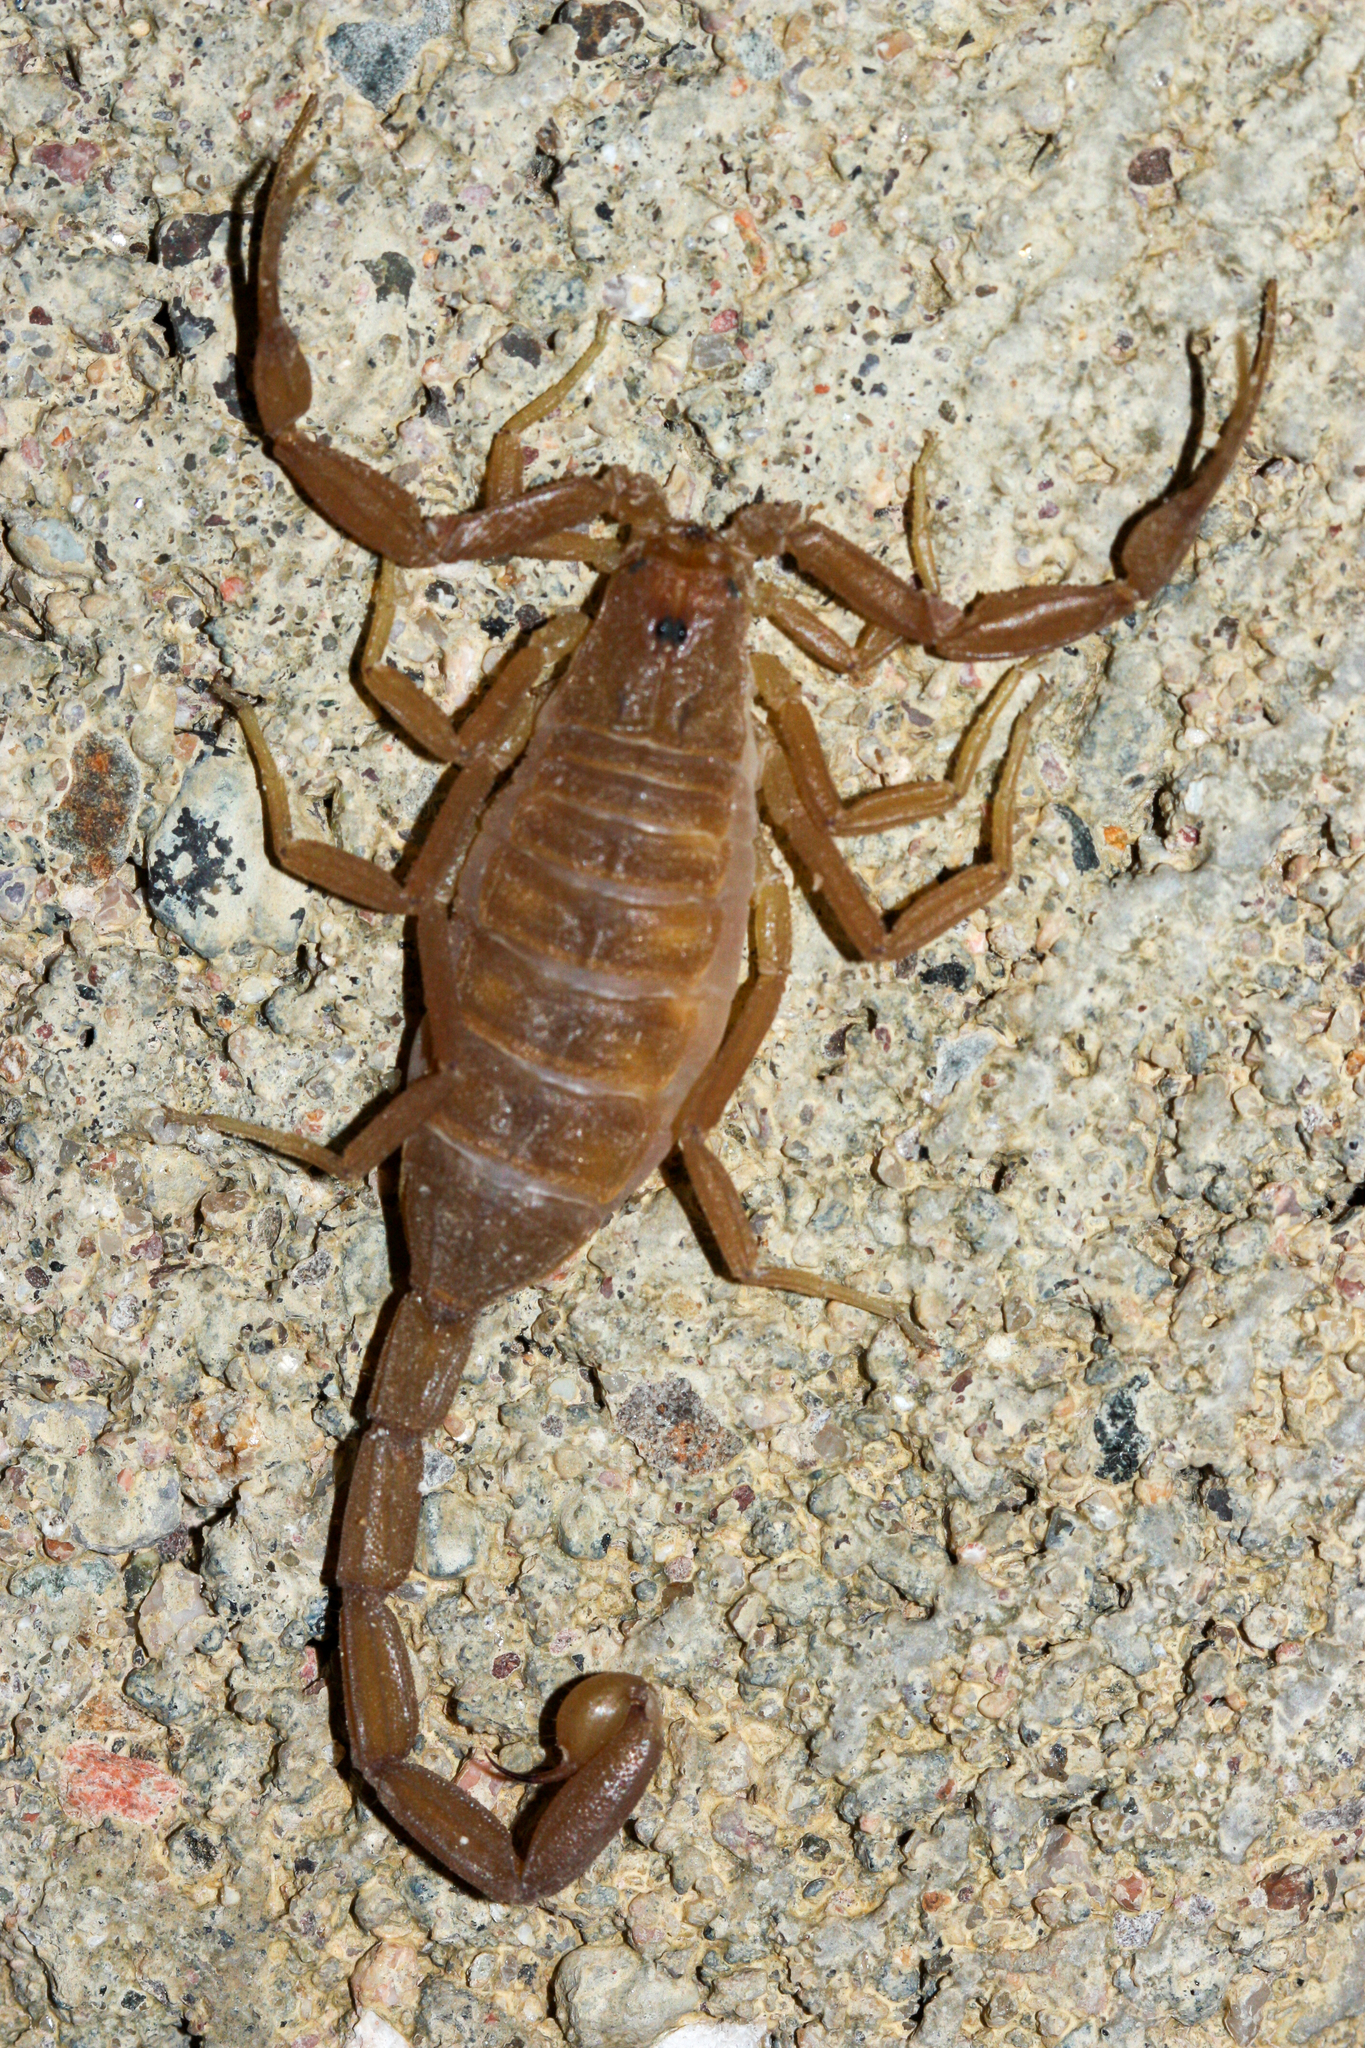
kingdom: Animalia
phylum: Arthropoda
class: Arachnida
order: Scorpiones
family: Buthidae
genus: Centruroides
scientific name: Centruroides sculpturatus
